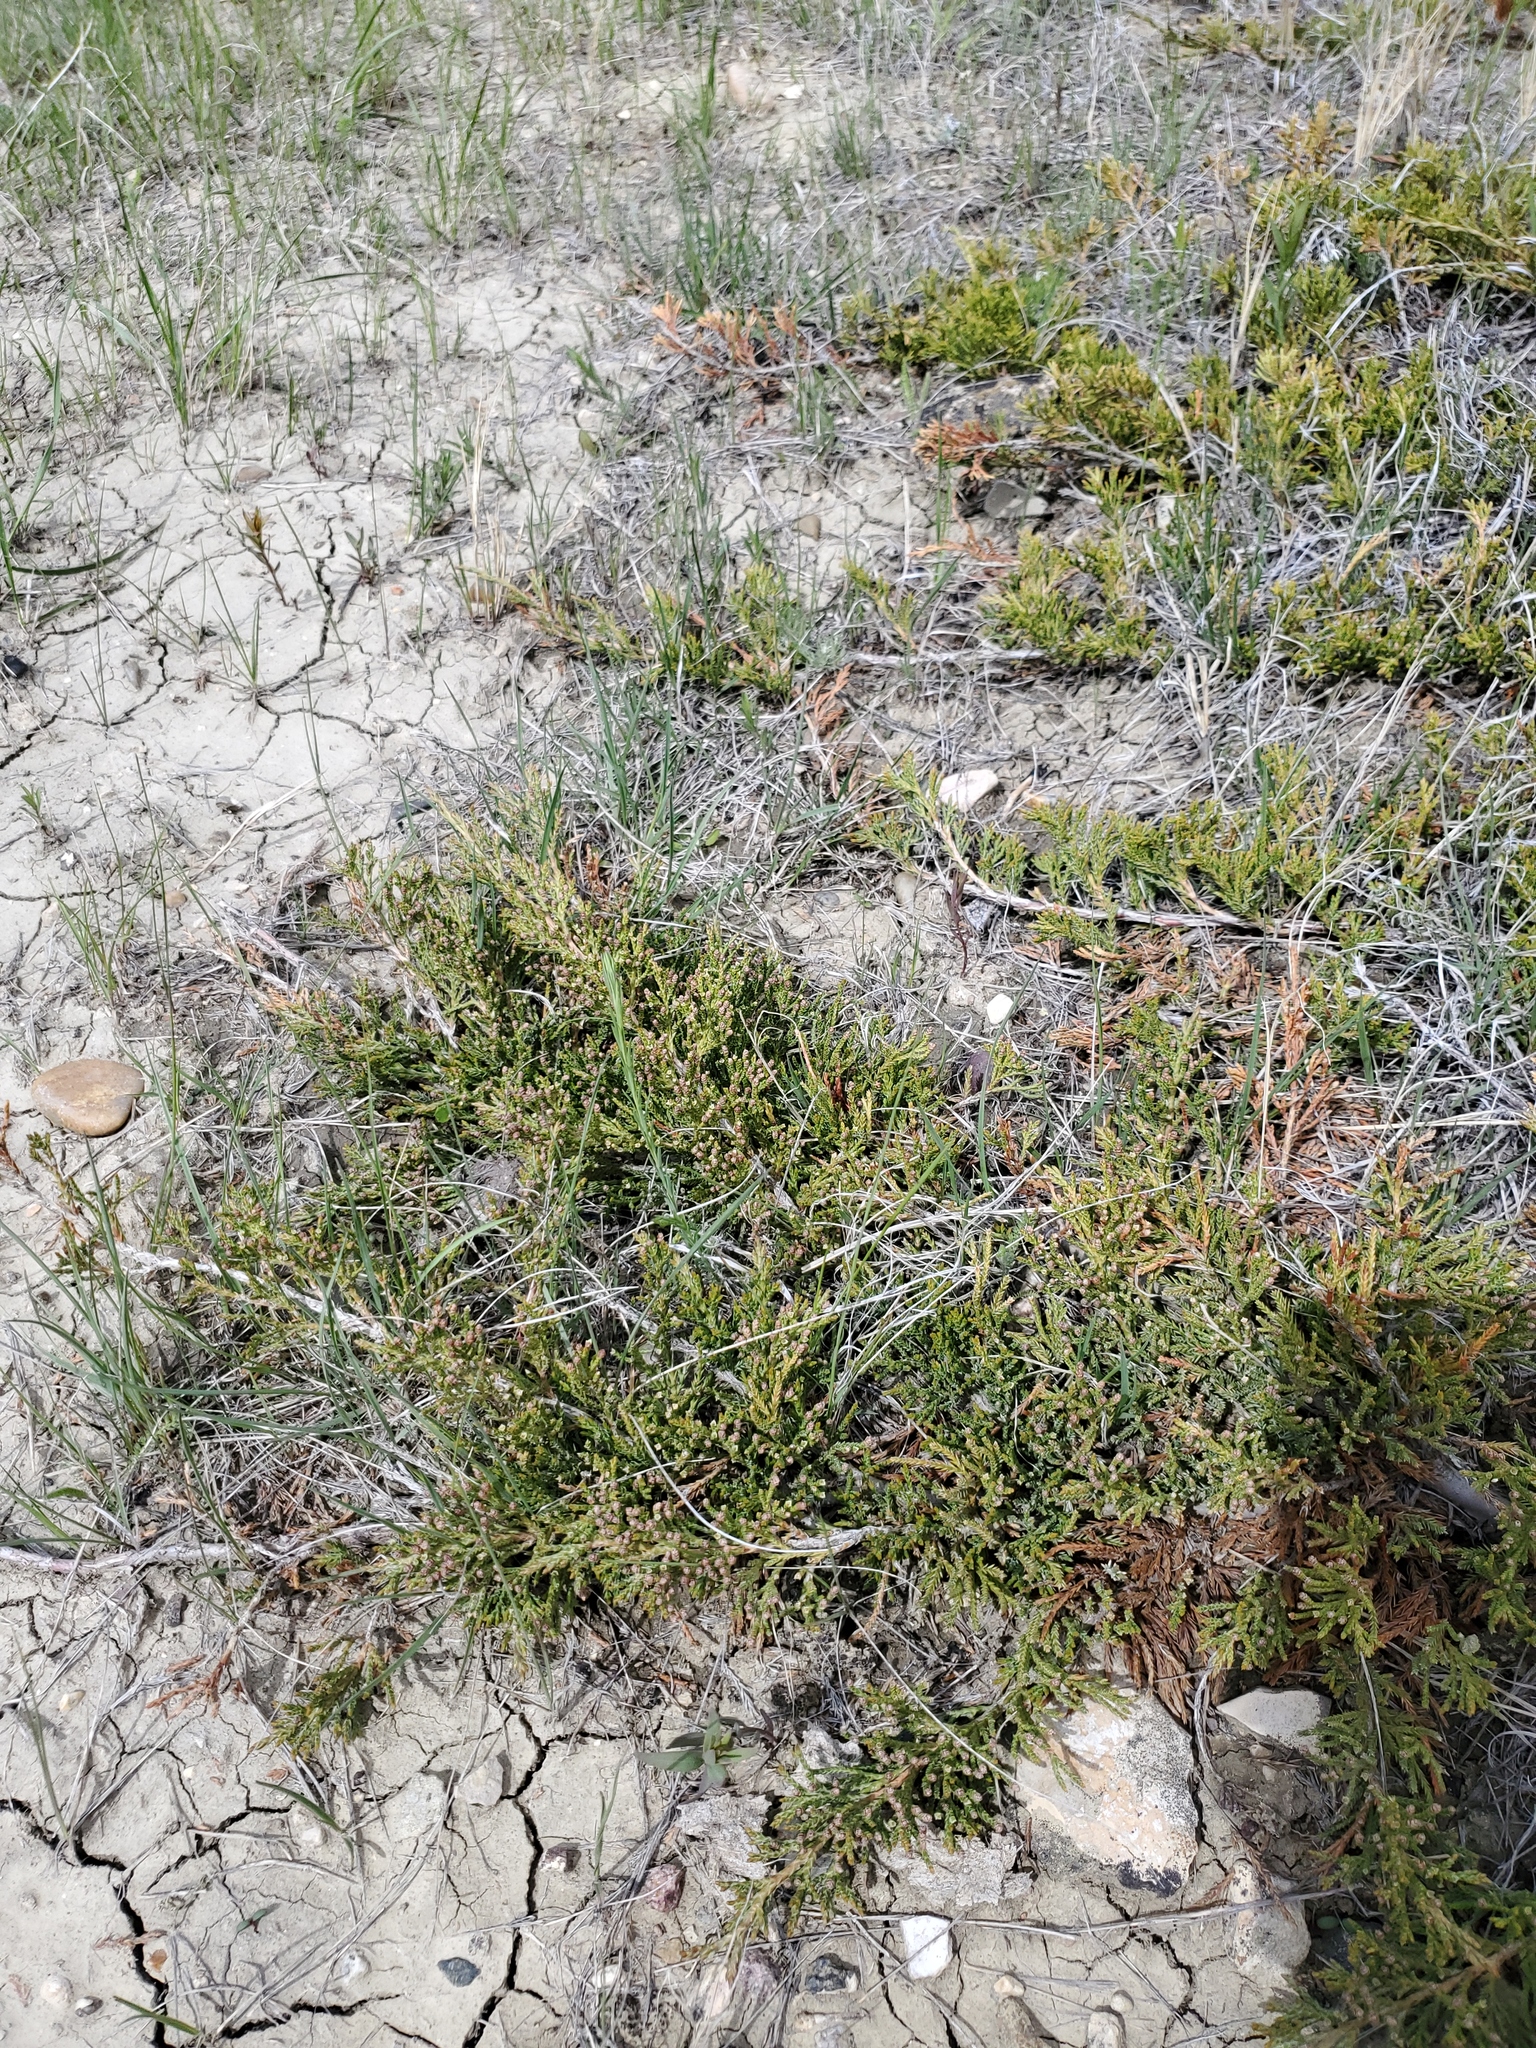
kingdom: Plantae
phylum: Tracheophyta
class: Pinopsida
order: Pinales
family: Cupressaceae
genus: Juniperus
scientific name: Juniperus horizontalis
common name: Creeping juniper
